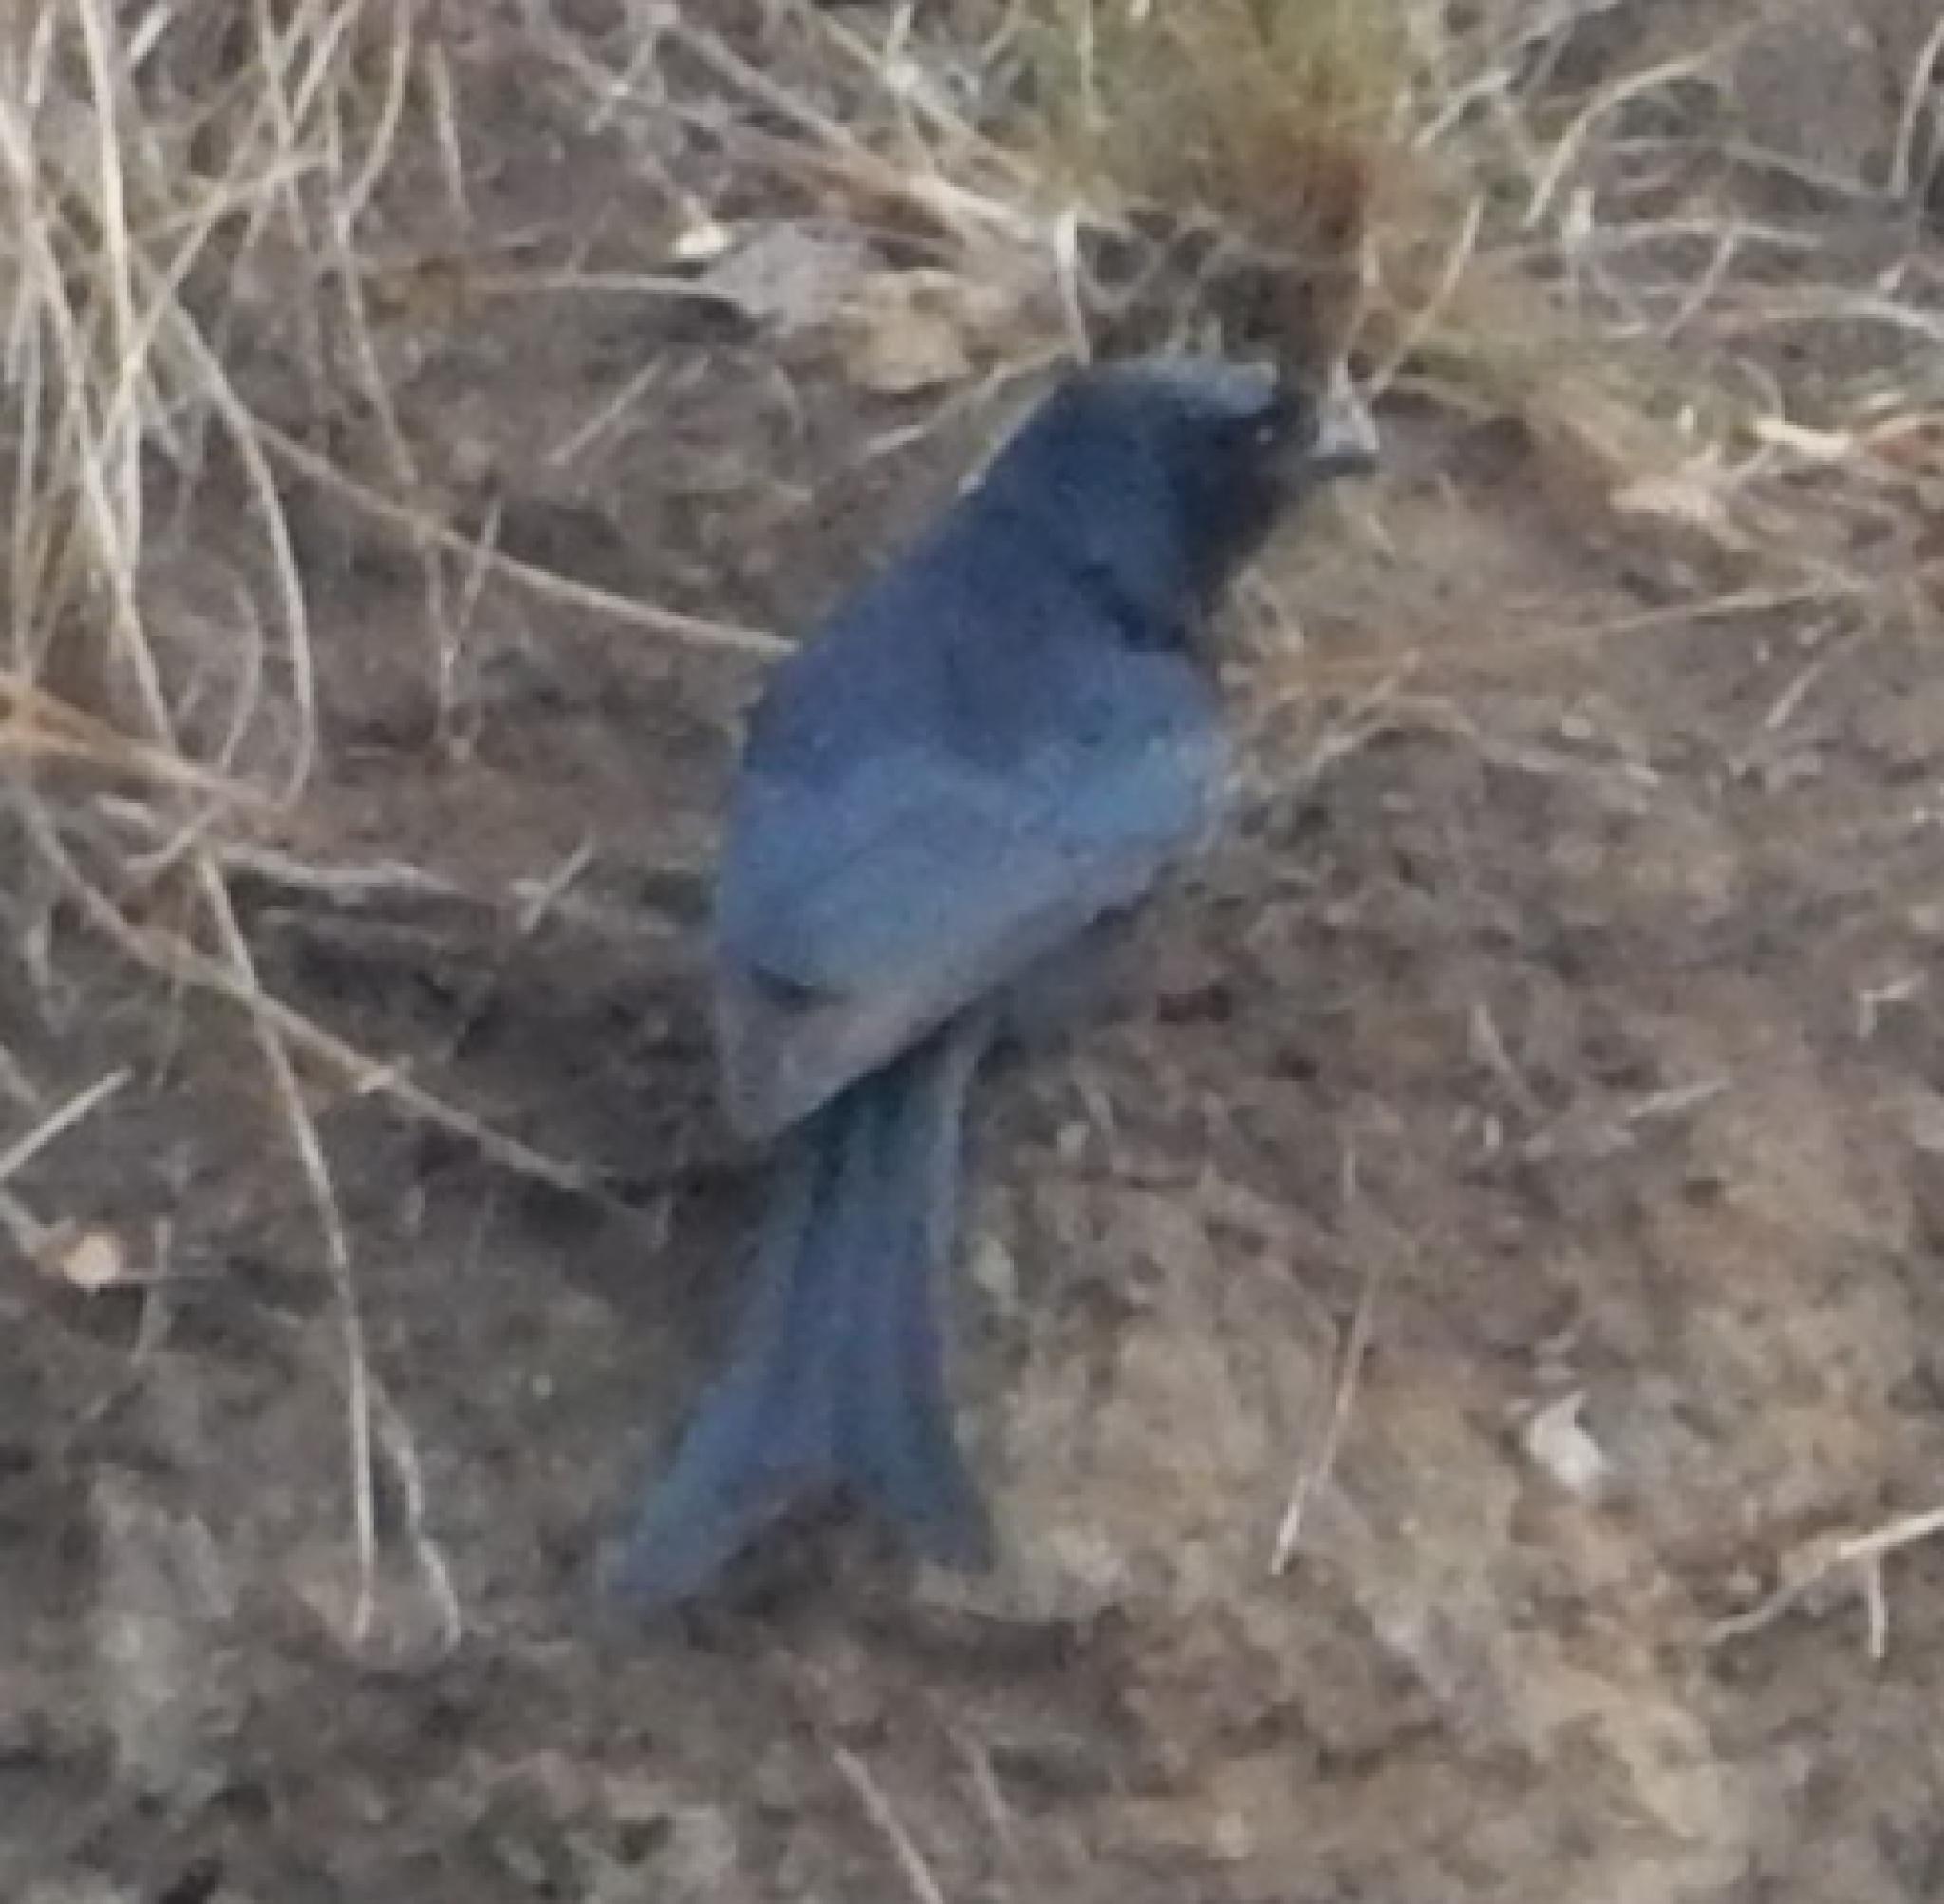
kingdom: Animalia
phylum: Chordata
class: Aves
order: Passeriformes
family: Dicruridae
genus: Dicrurus
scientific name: Dicrurus adsimilis
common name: Fork-tailed drongo
